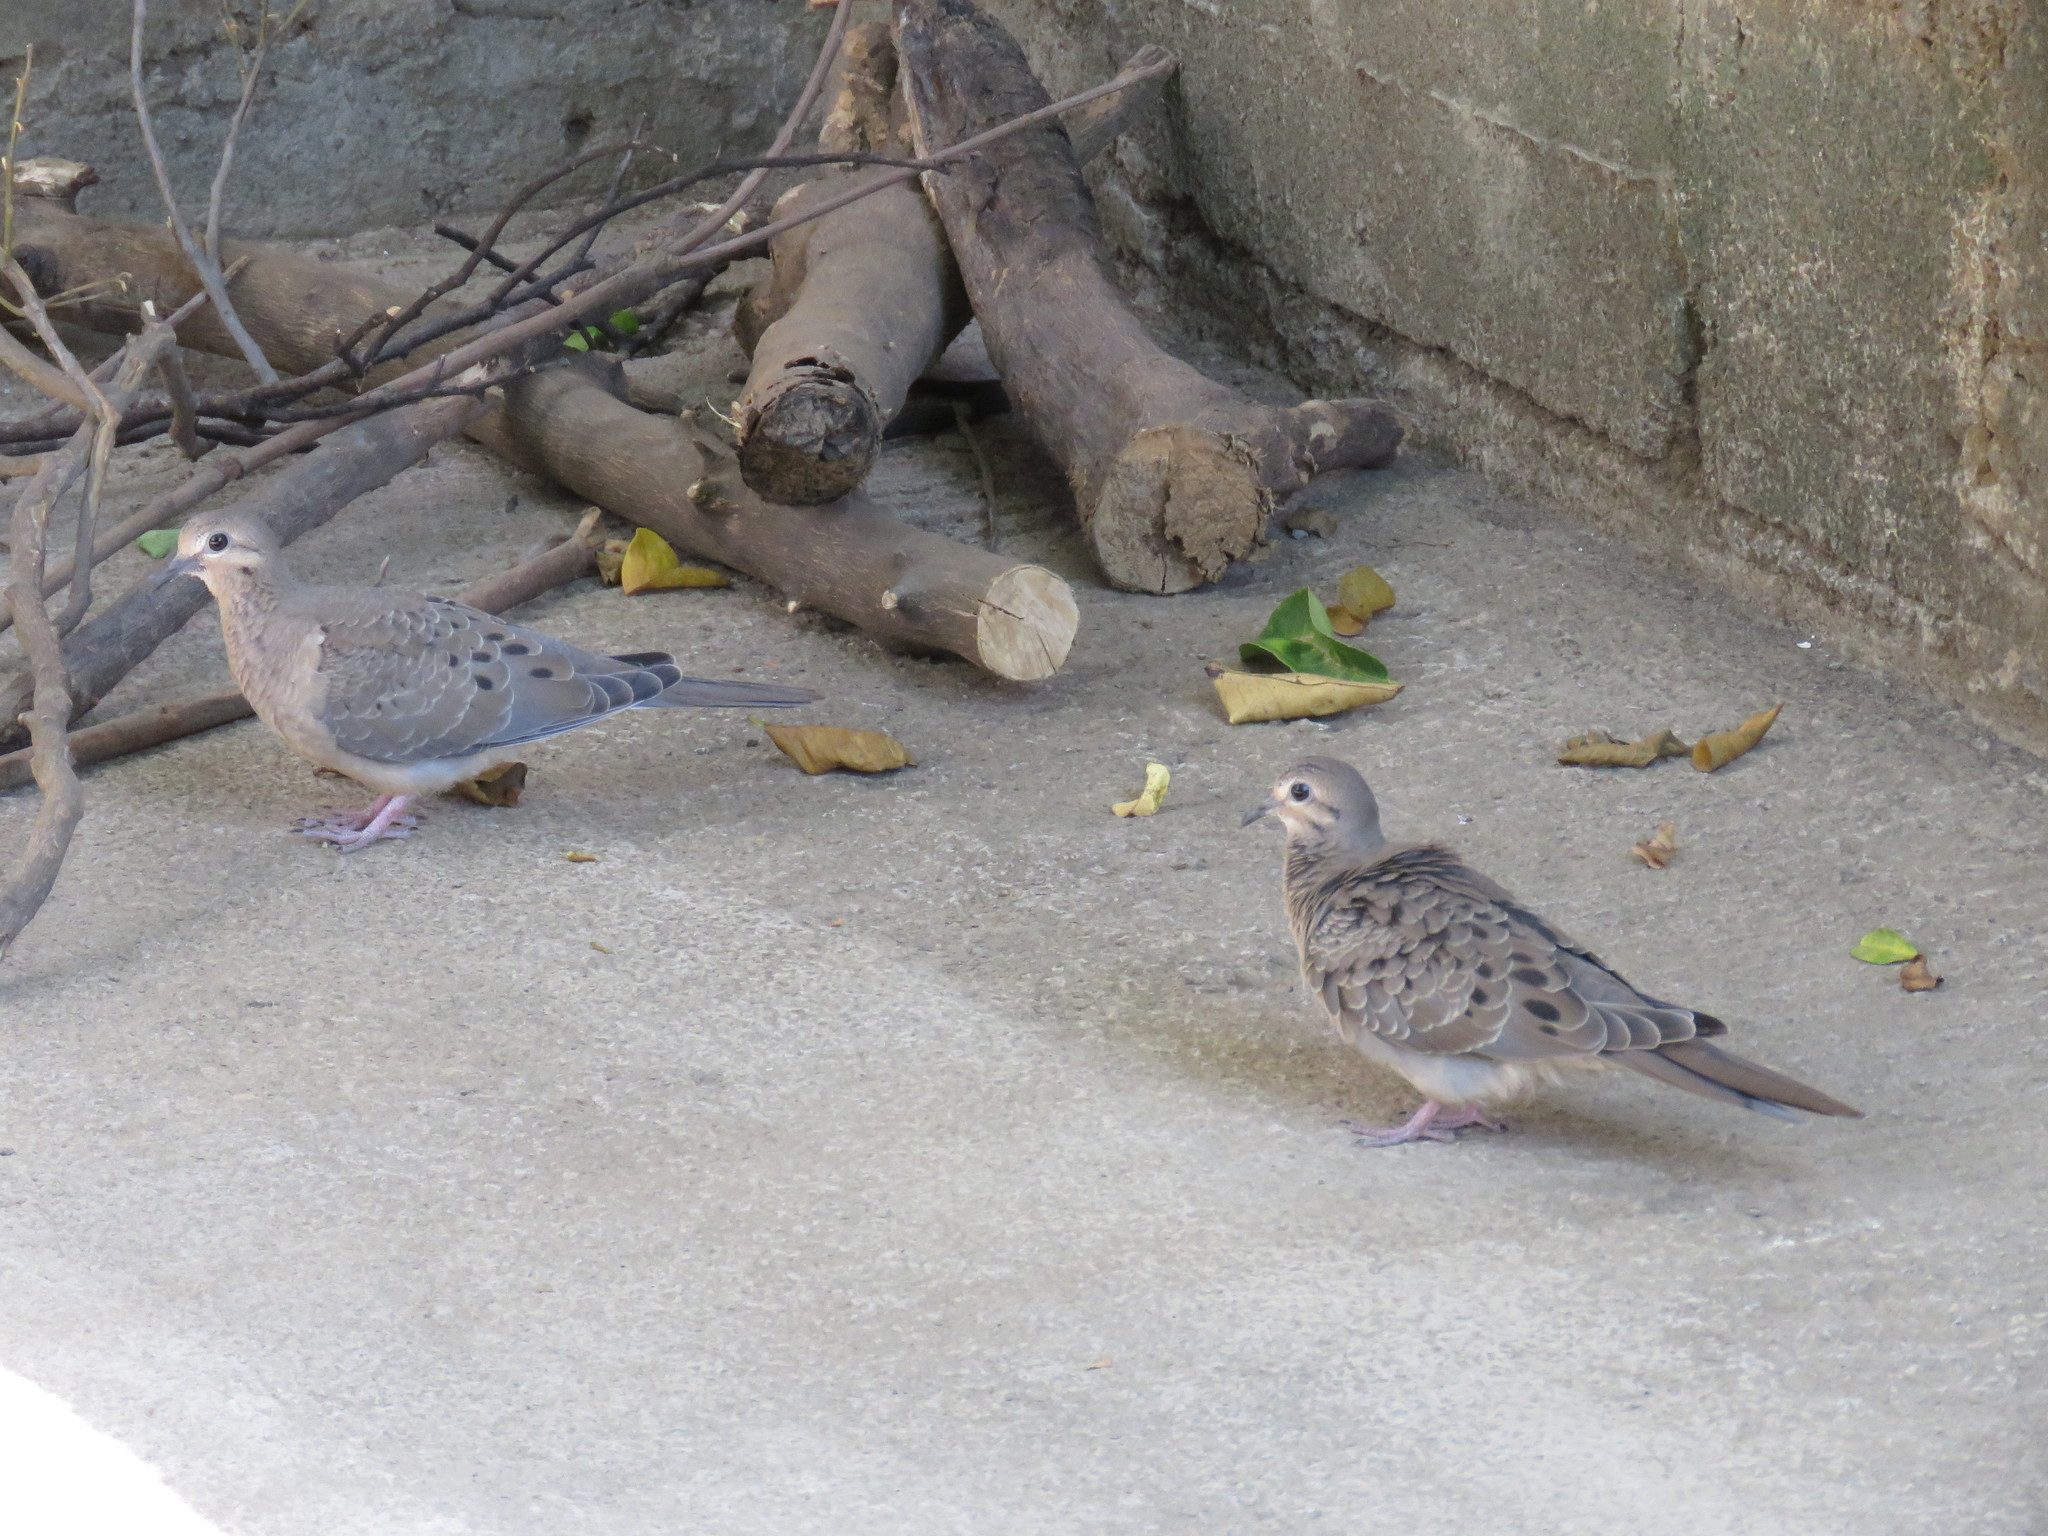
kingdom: Animalia
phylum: Chordata
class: Aves
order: Columbiformes
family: Columbidae
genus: Zenaida
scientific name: Zenaida macroura
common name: Mourning dove
